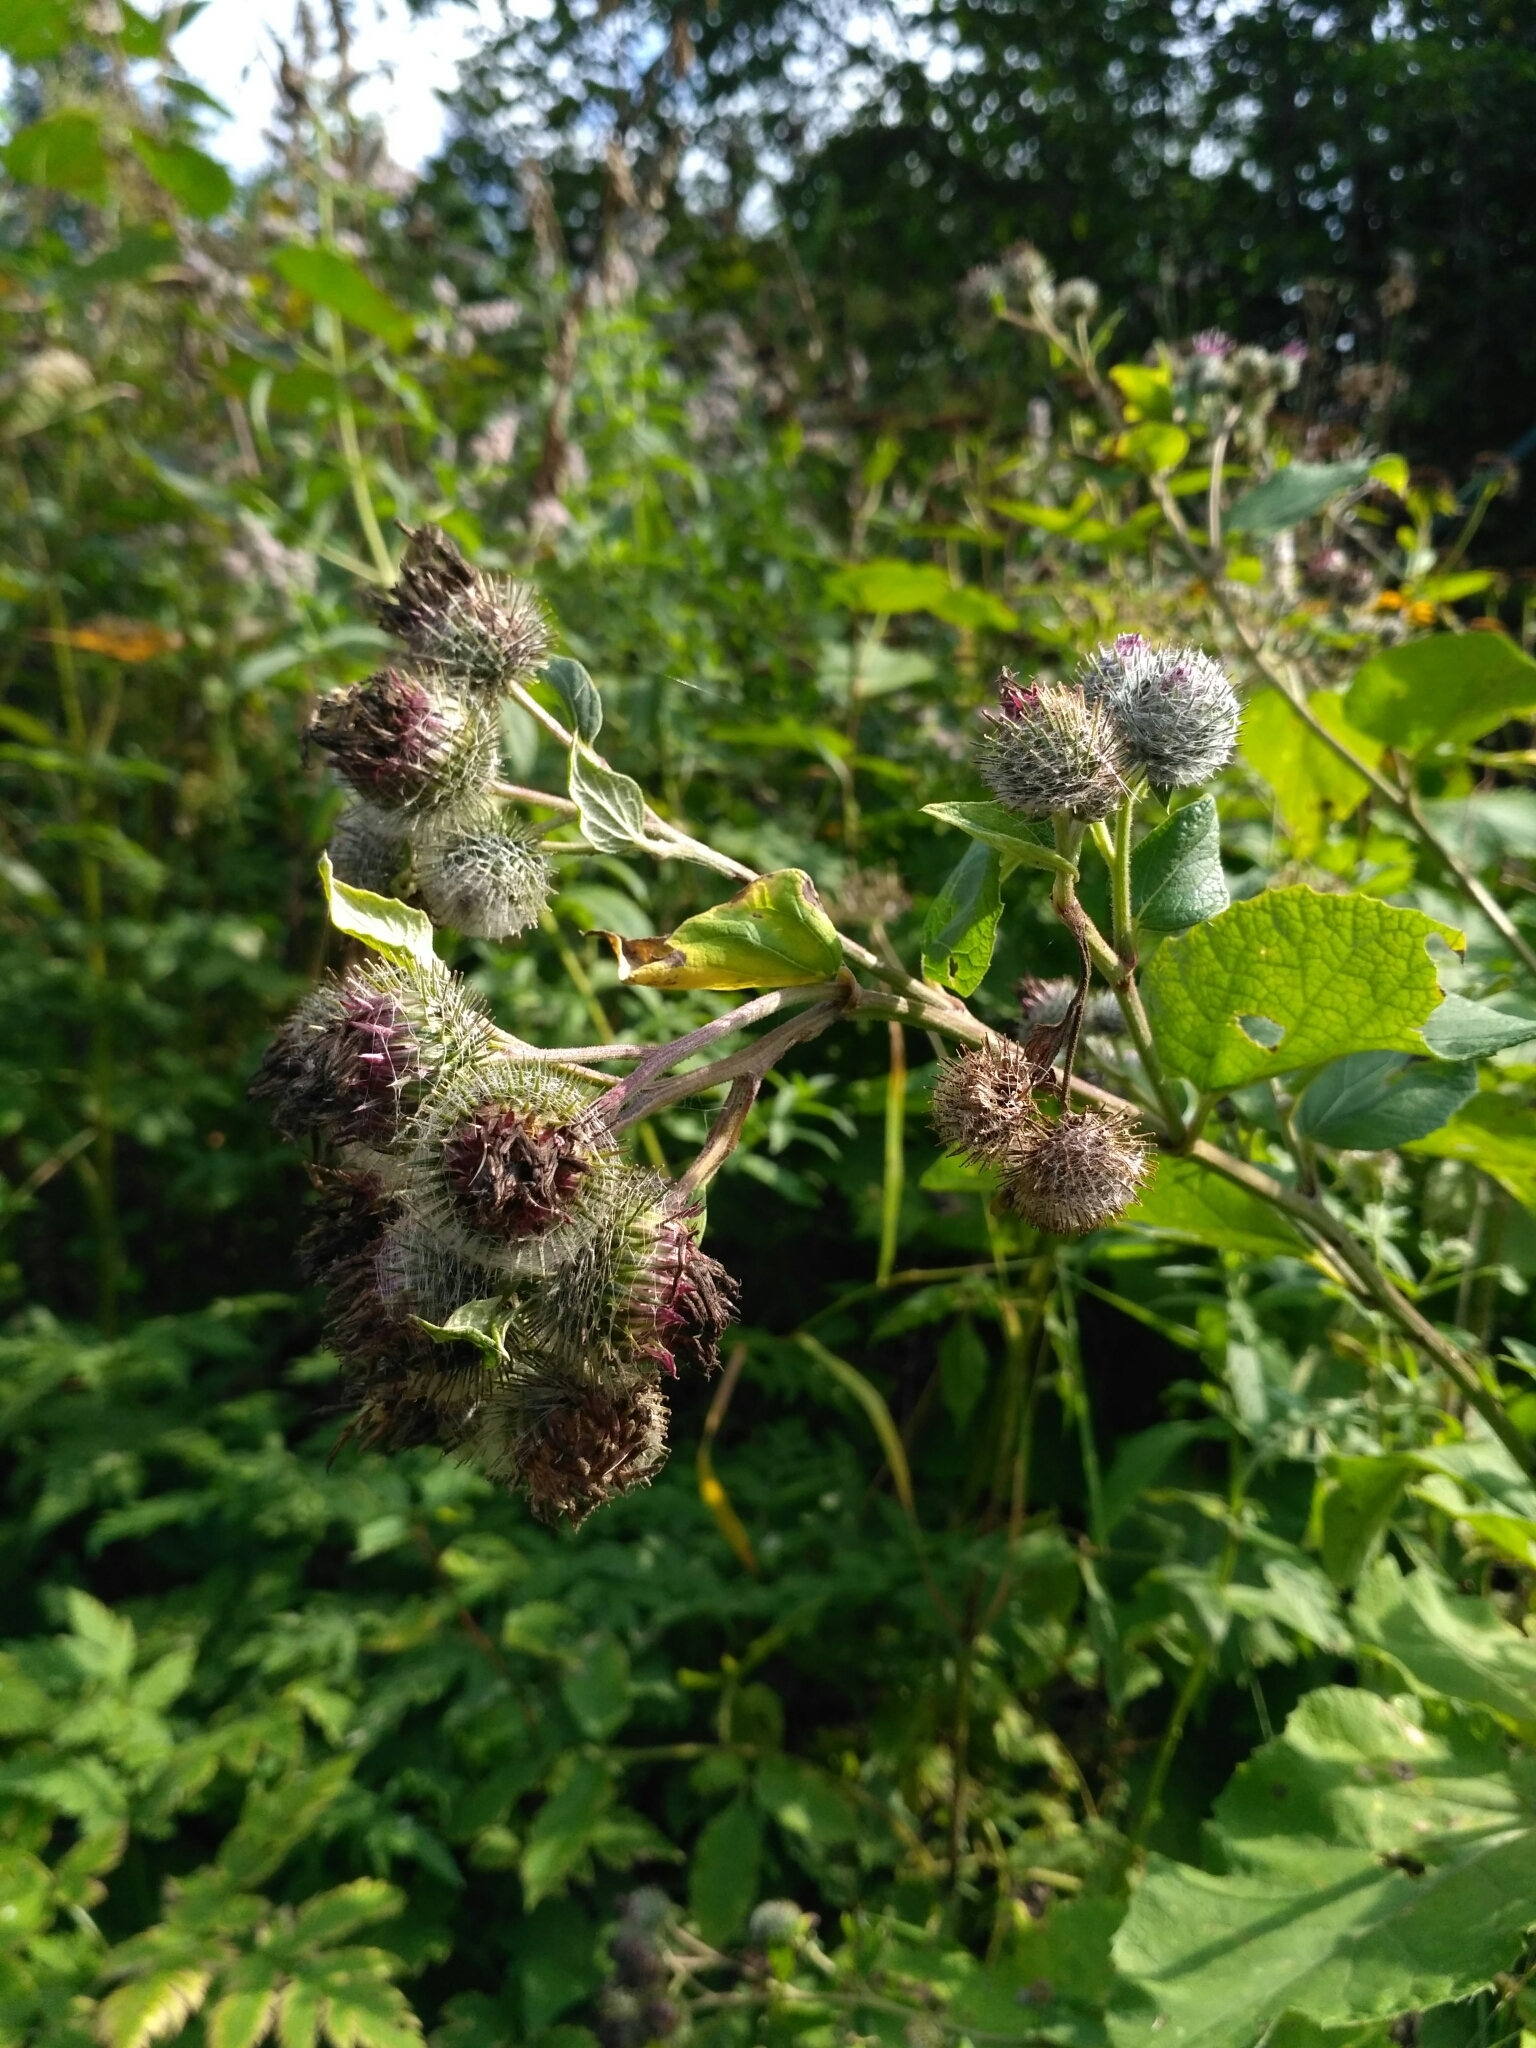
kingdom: Plantae
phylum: Tracheophyta
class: Magnoliopsida
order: Asterales
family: Asteraceae
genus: Arctium
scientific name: Arctium tomentosum
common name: Woolly burdock
